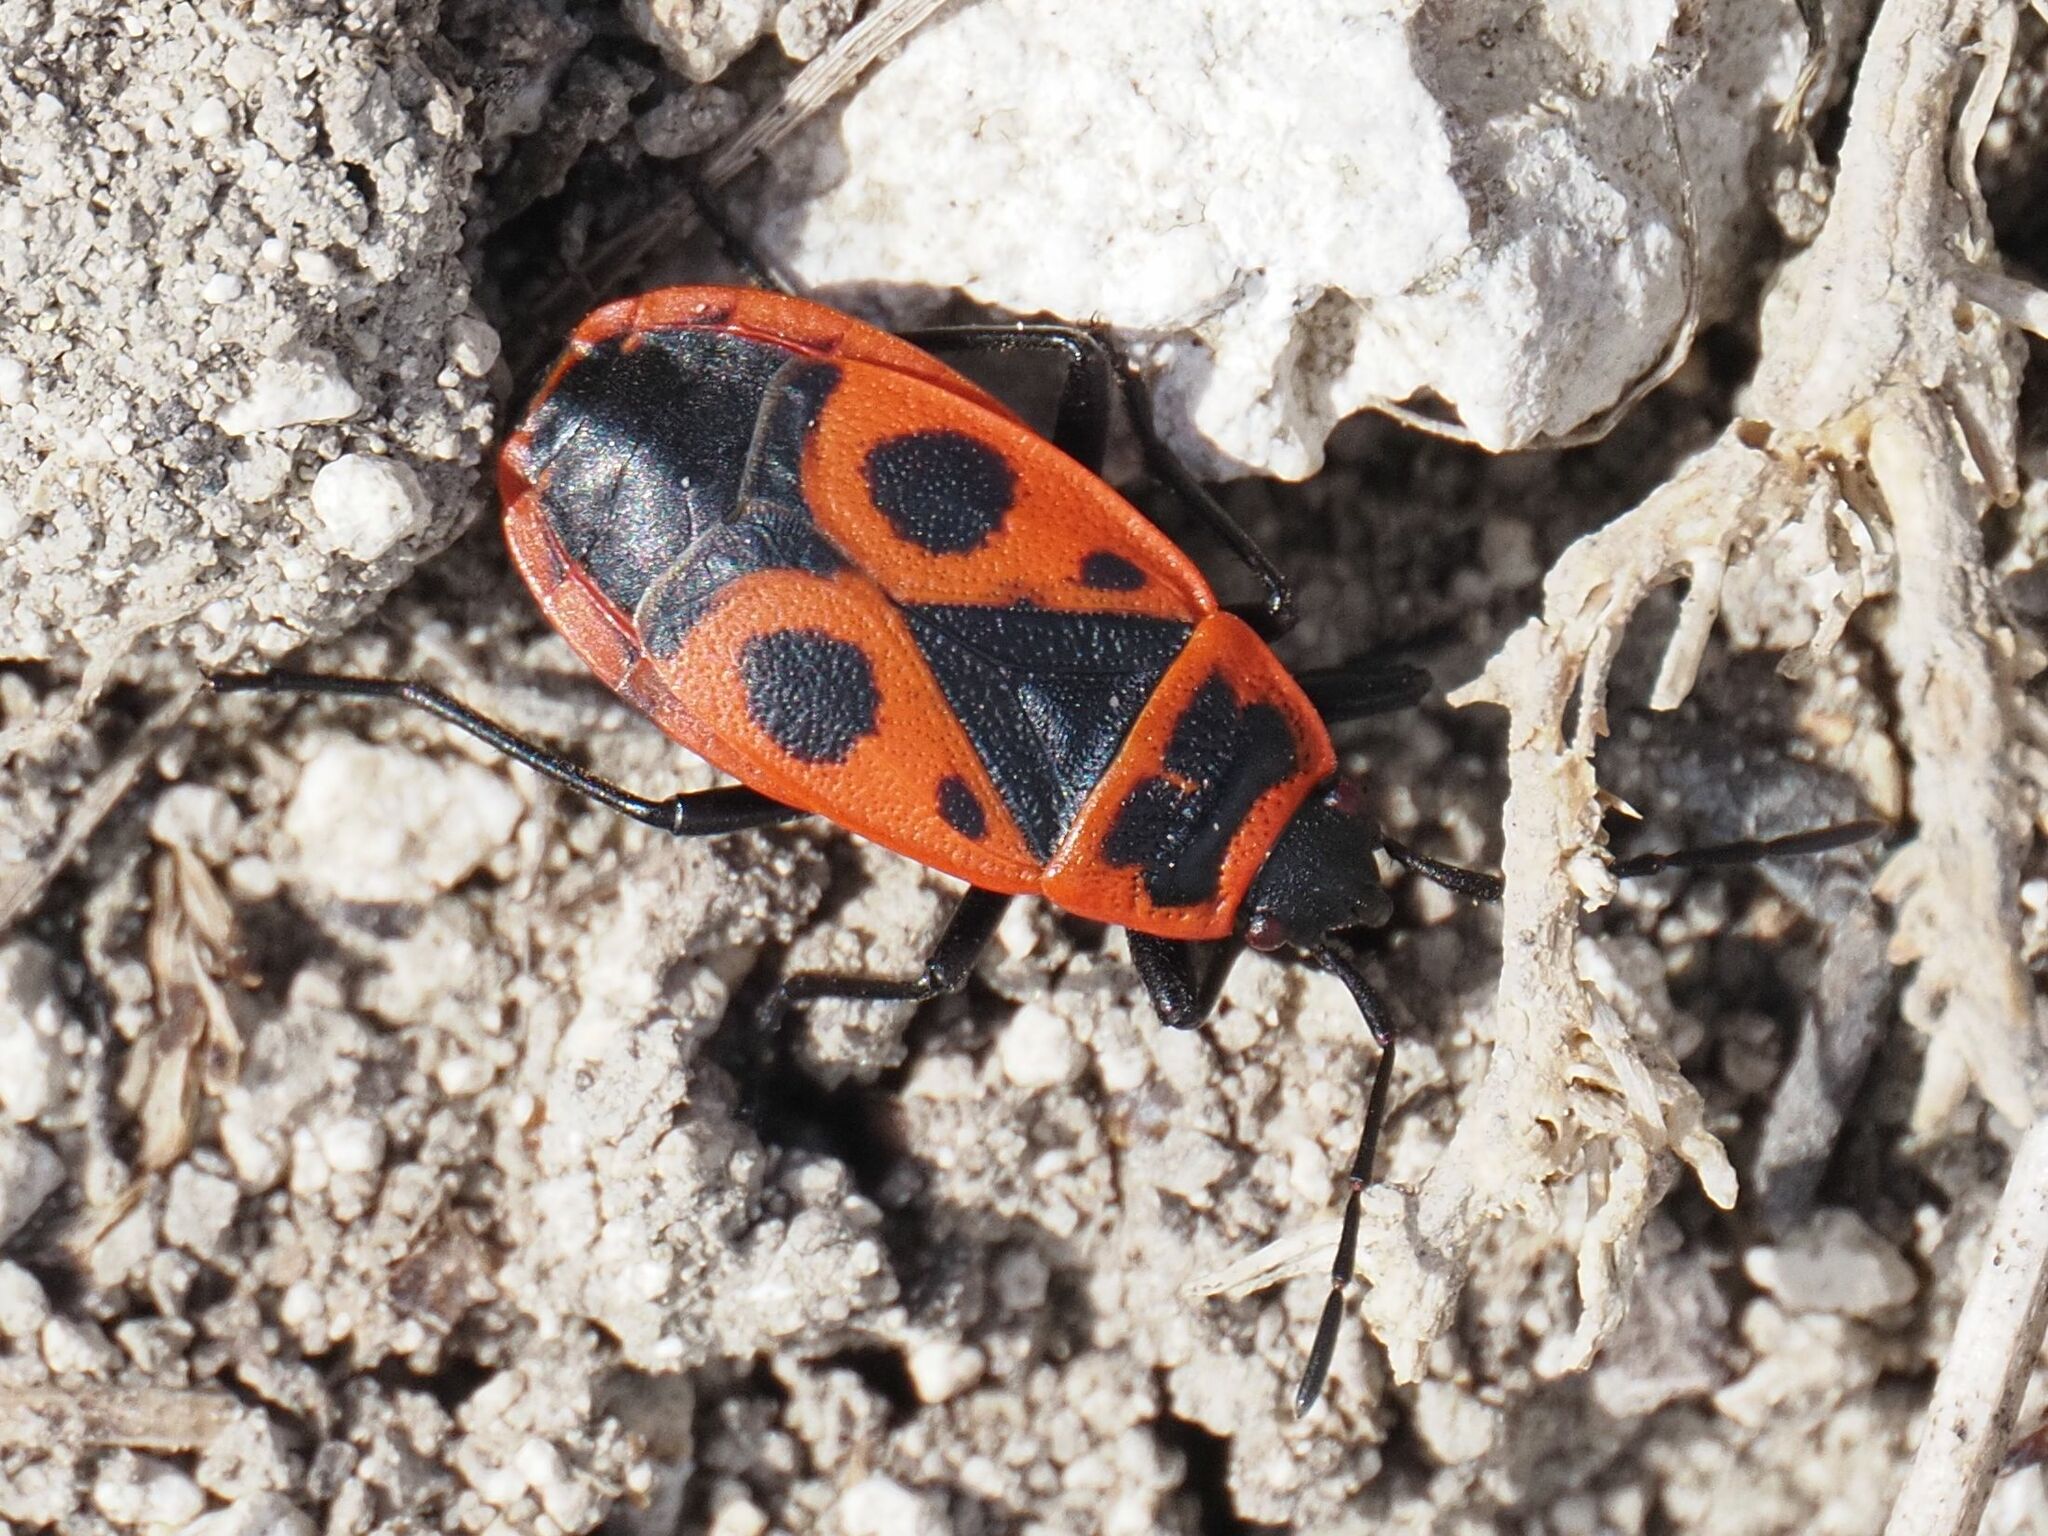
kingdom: Animalia
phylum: Arthropoda
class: Insecta
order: Hemiptera
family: Pyrrhocoridae
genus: Pyrrhocoris
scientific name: Pyrrhocoris apterus
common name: Firebug
